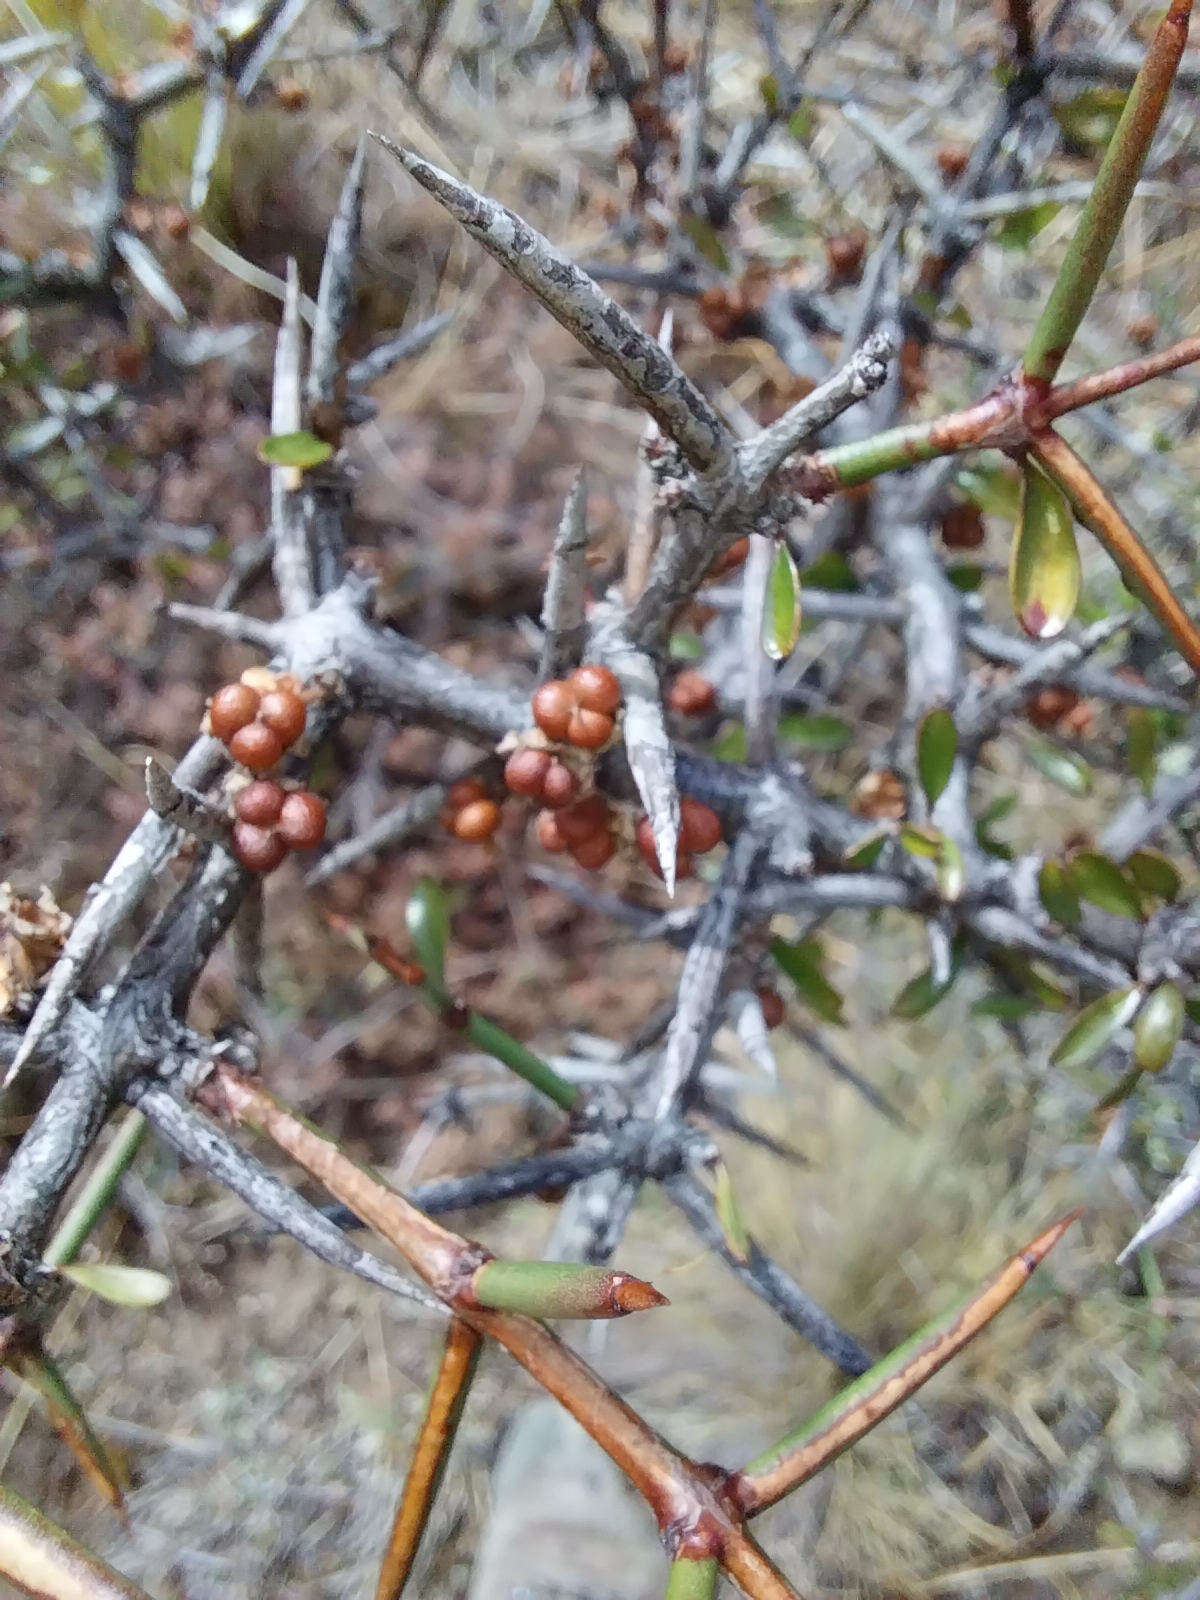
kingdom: Plantae
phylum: Tracheophyta
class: Magnoliopsida
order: Rosales
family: Rhamnaceae
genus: Discaria
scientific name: Discaria toumatou
